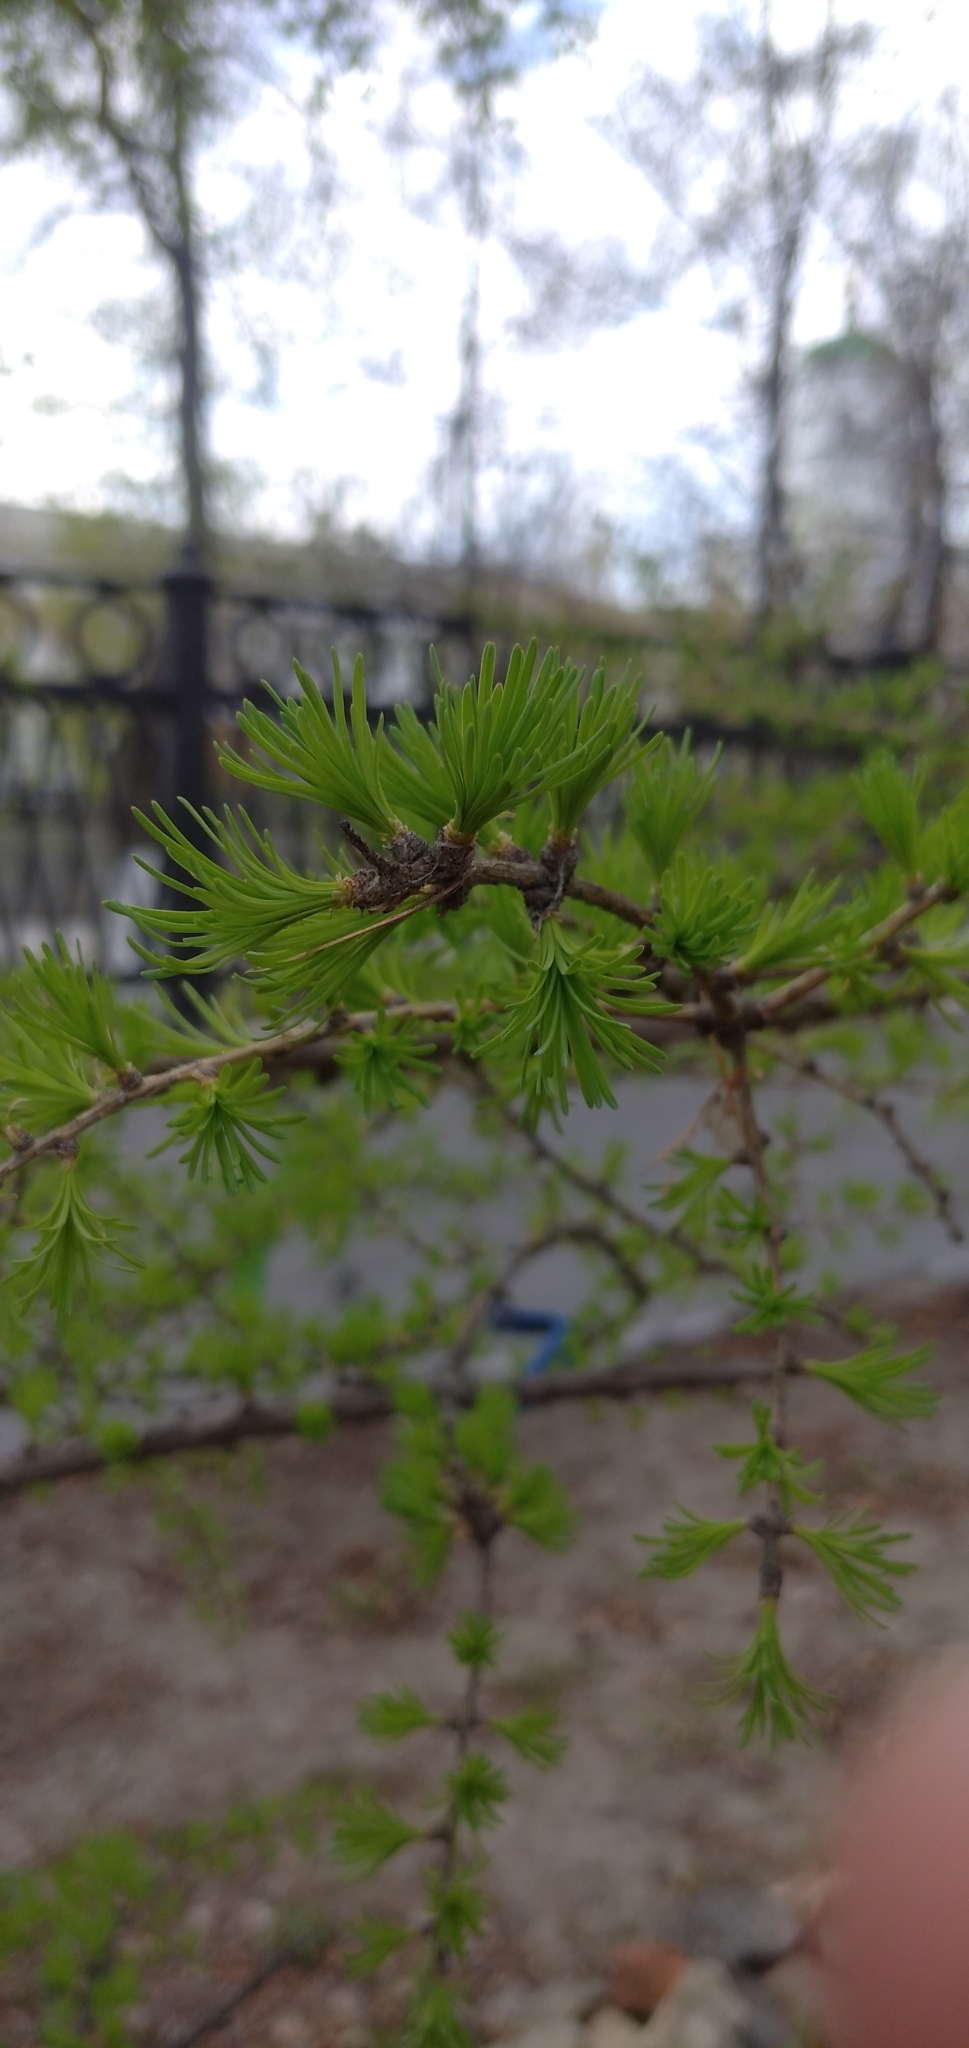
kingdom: Plantae
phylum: Tracheophyta
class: Pinopsida
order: Pinales
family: Pinaceae
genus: Larix
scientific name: Larix sibirica
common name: Siberian larch
